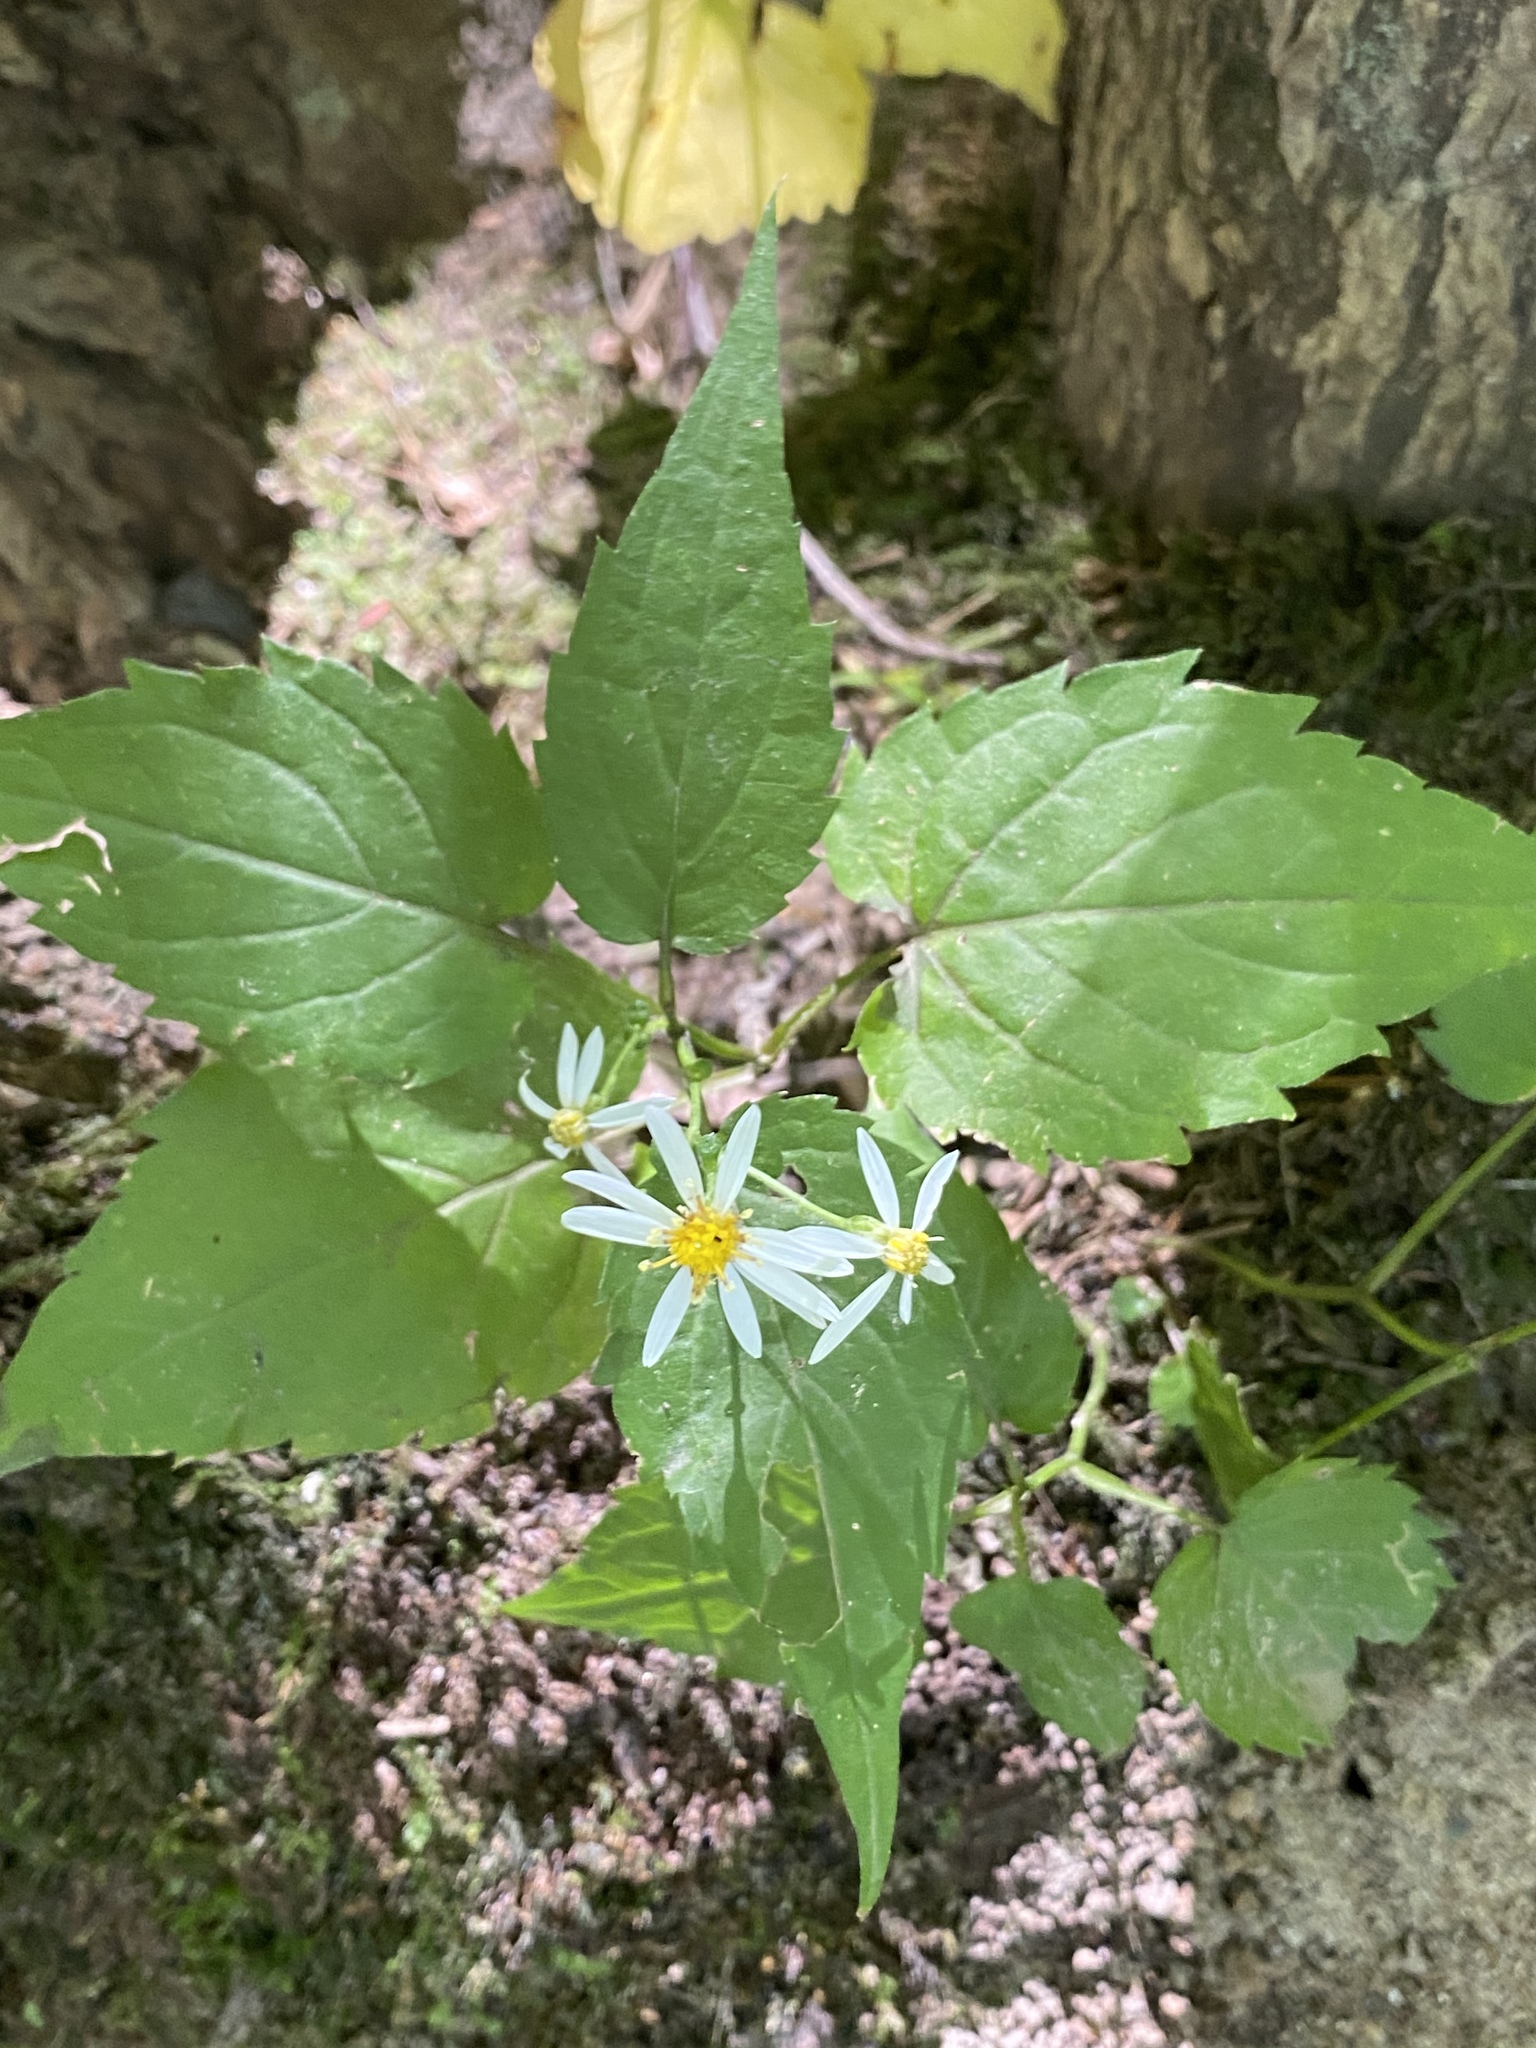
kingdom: Plantae
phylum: Tracheophyta
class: Magnoliopsida
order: Asterales
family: Asteraceae
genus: Eurybia
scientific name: Eurybia divaricata
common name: White wood aster
